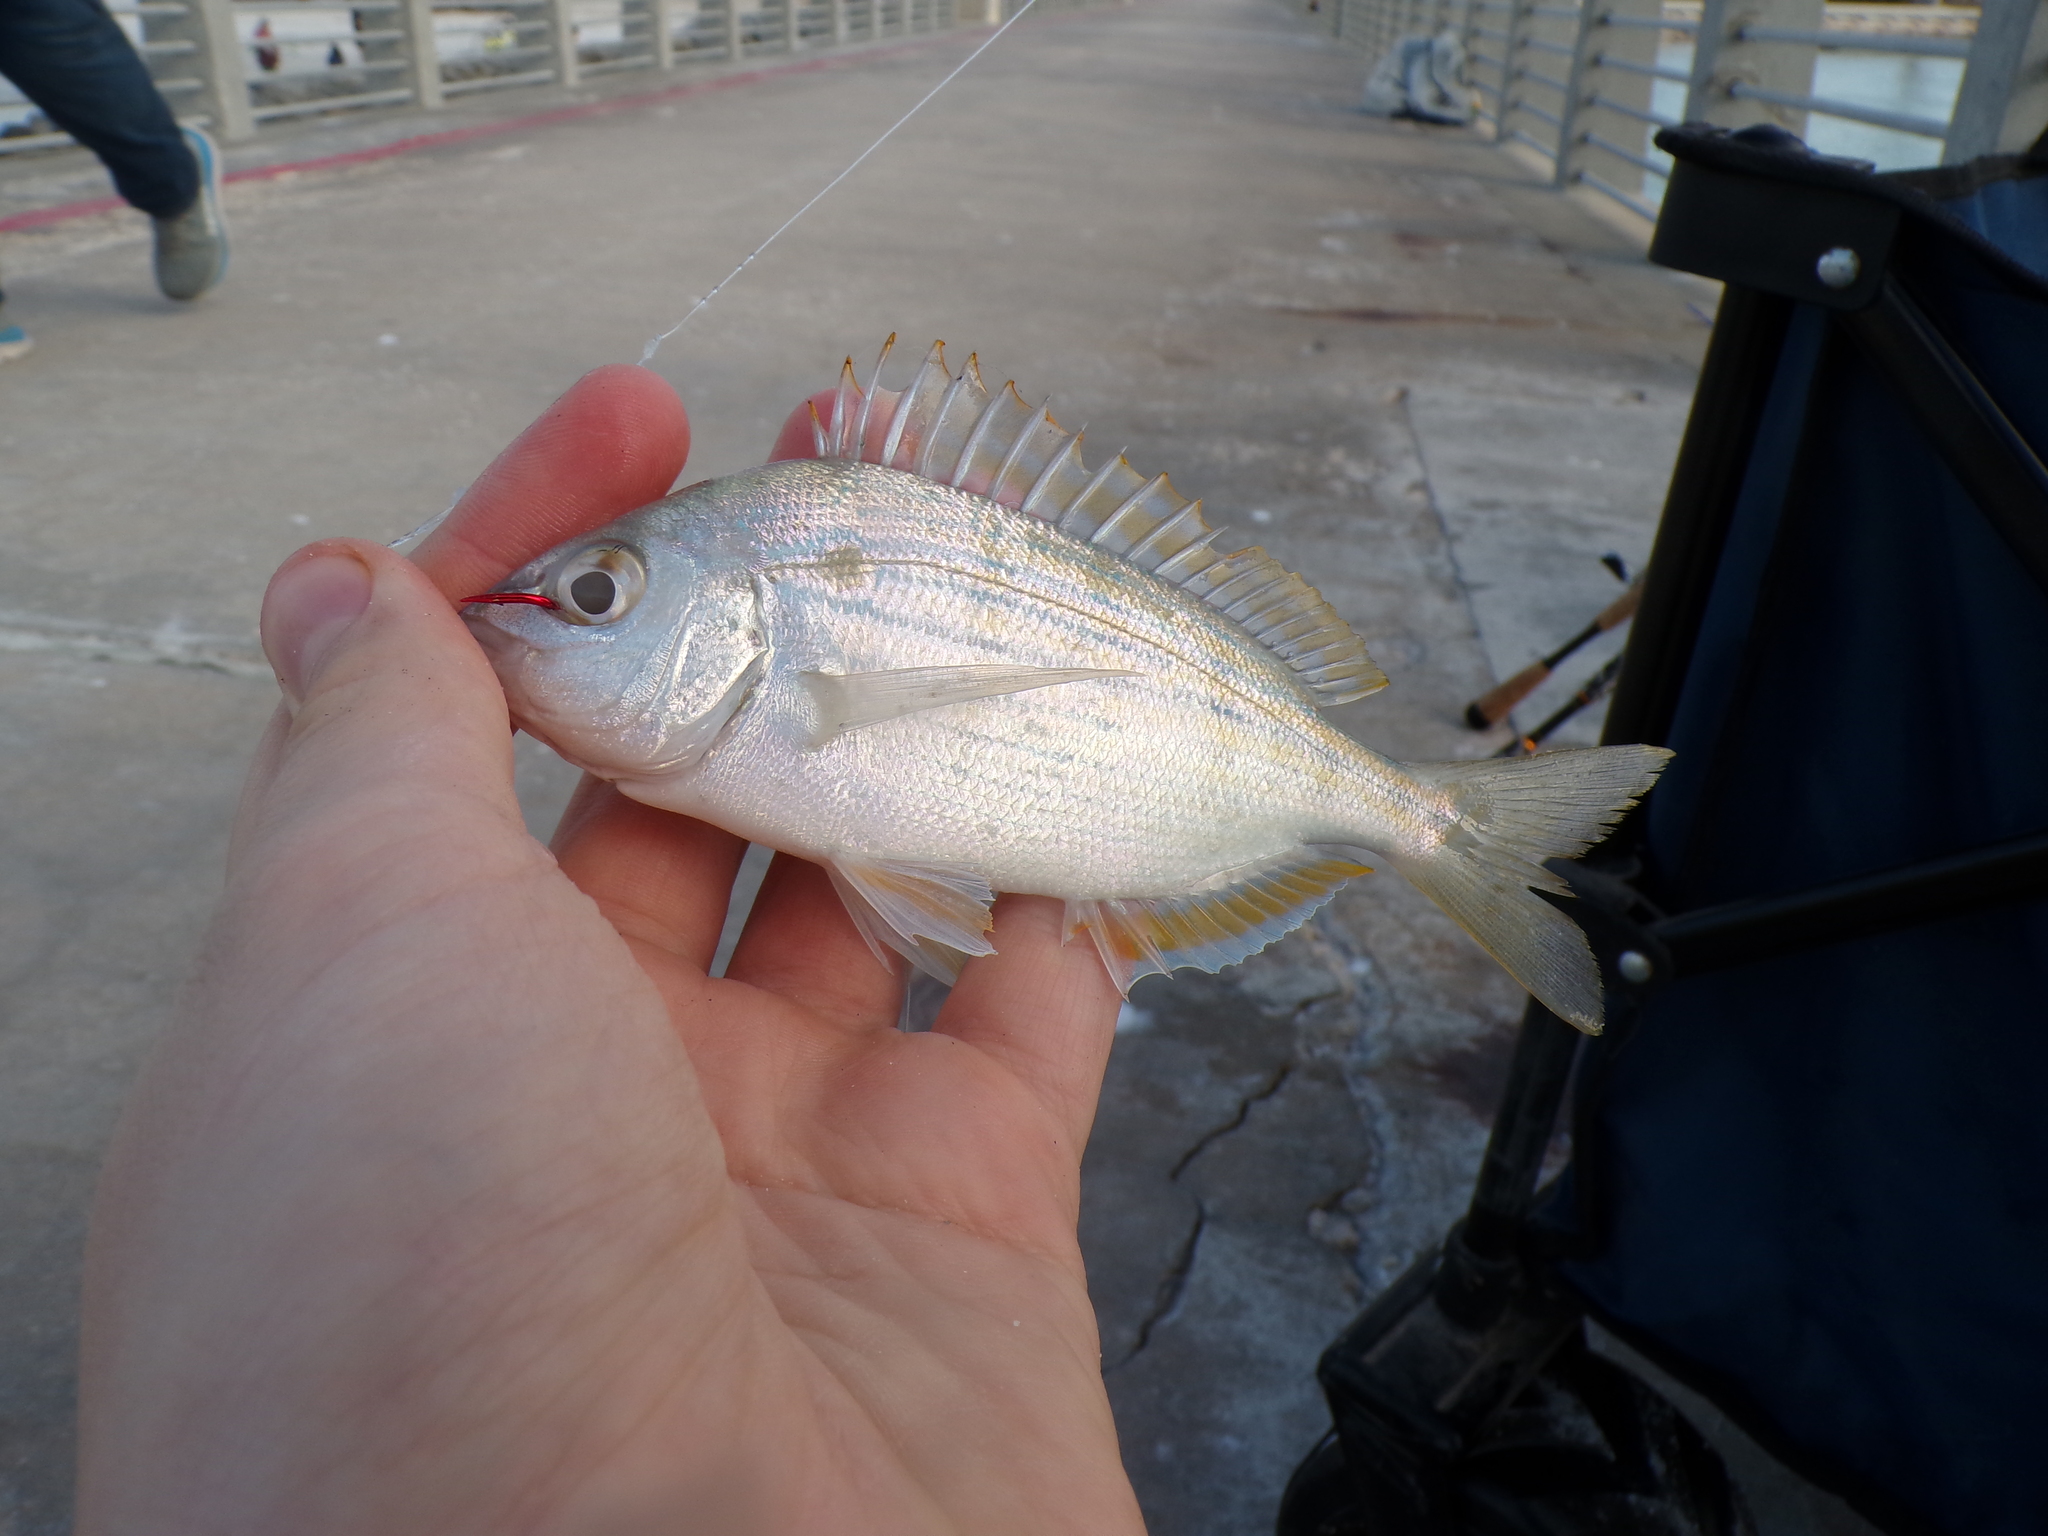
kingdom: Animalia
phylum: Chordata
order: Perciformes
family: Sparidae
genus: Lagodon
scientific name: Lagodon rhomboides
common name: Pinfish
